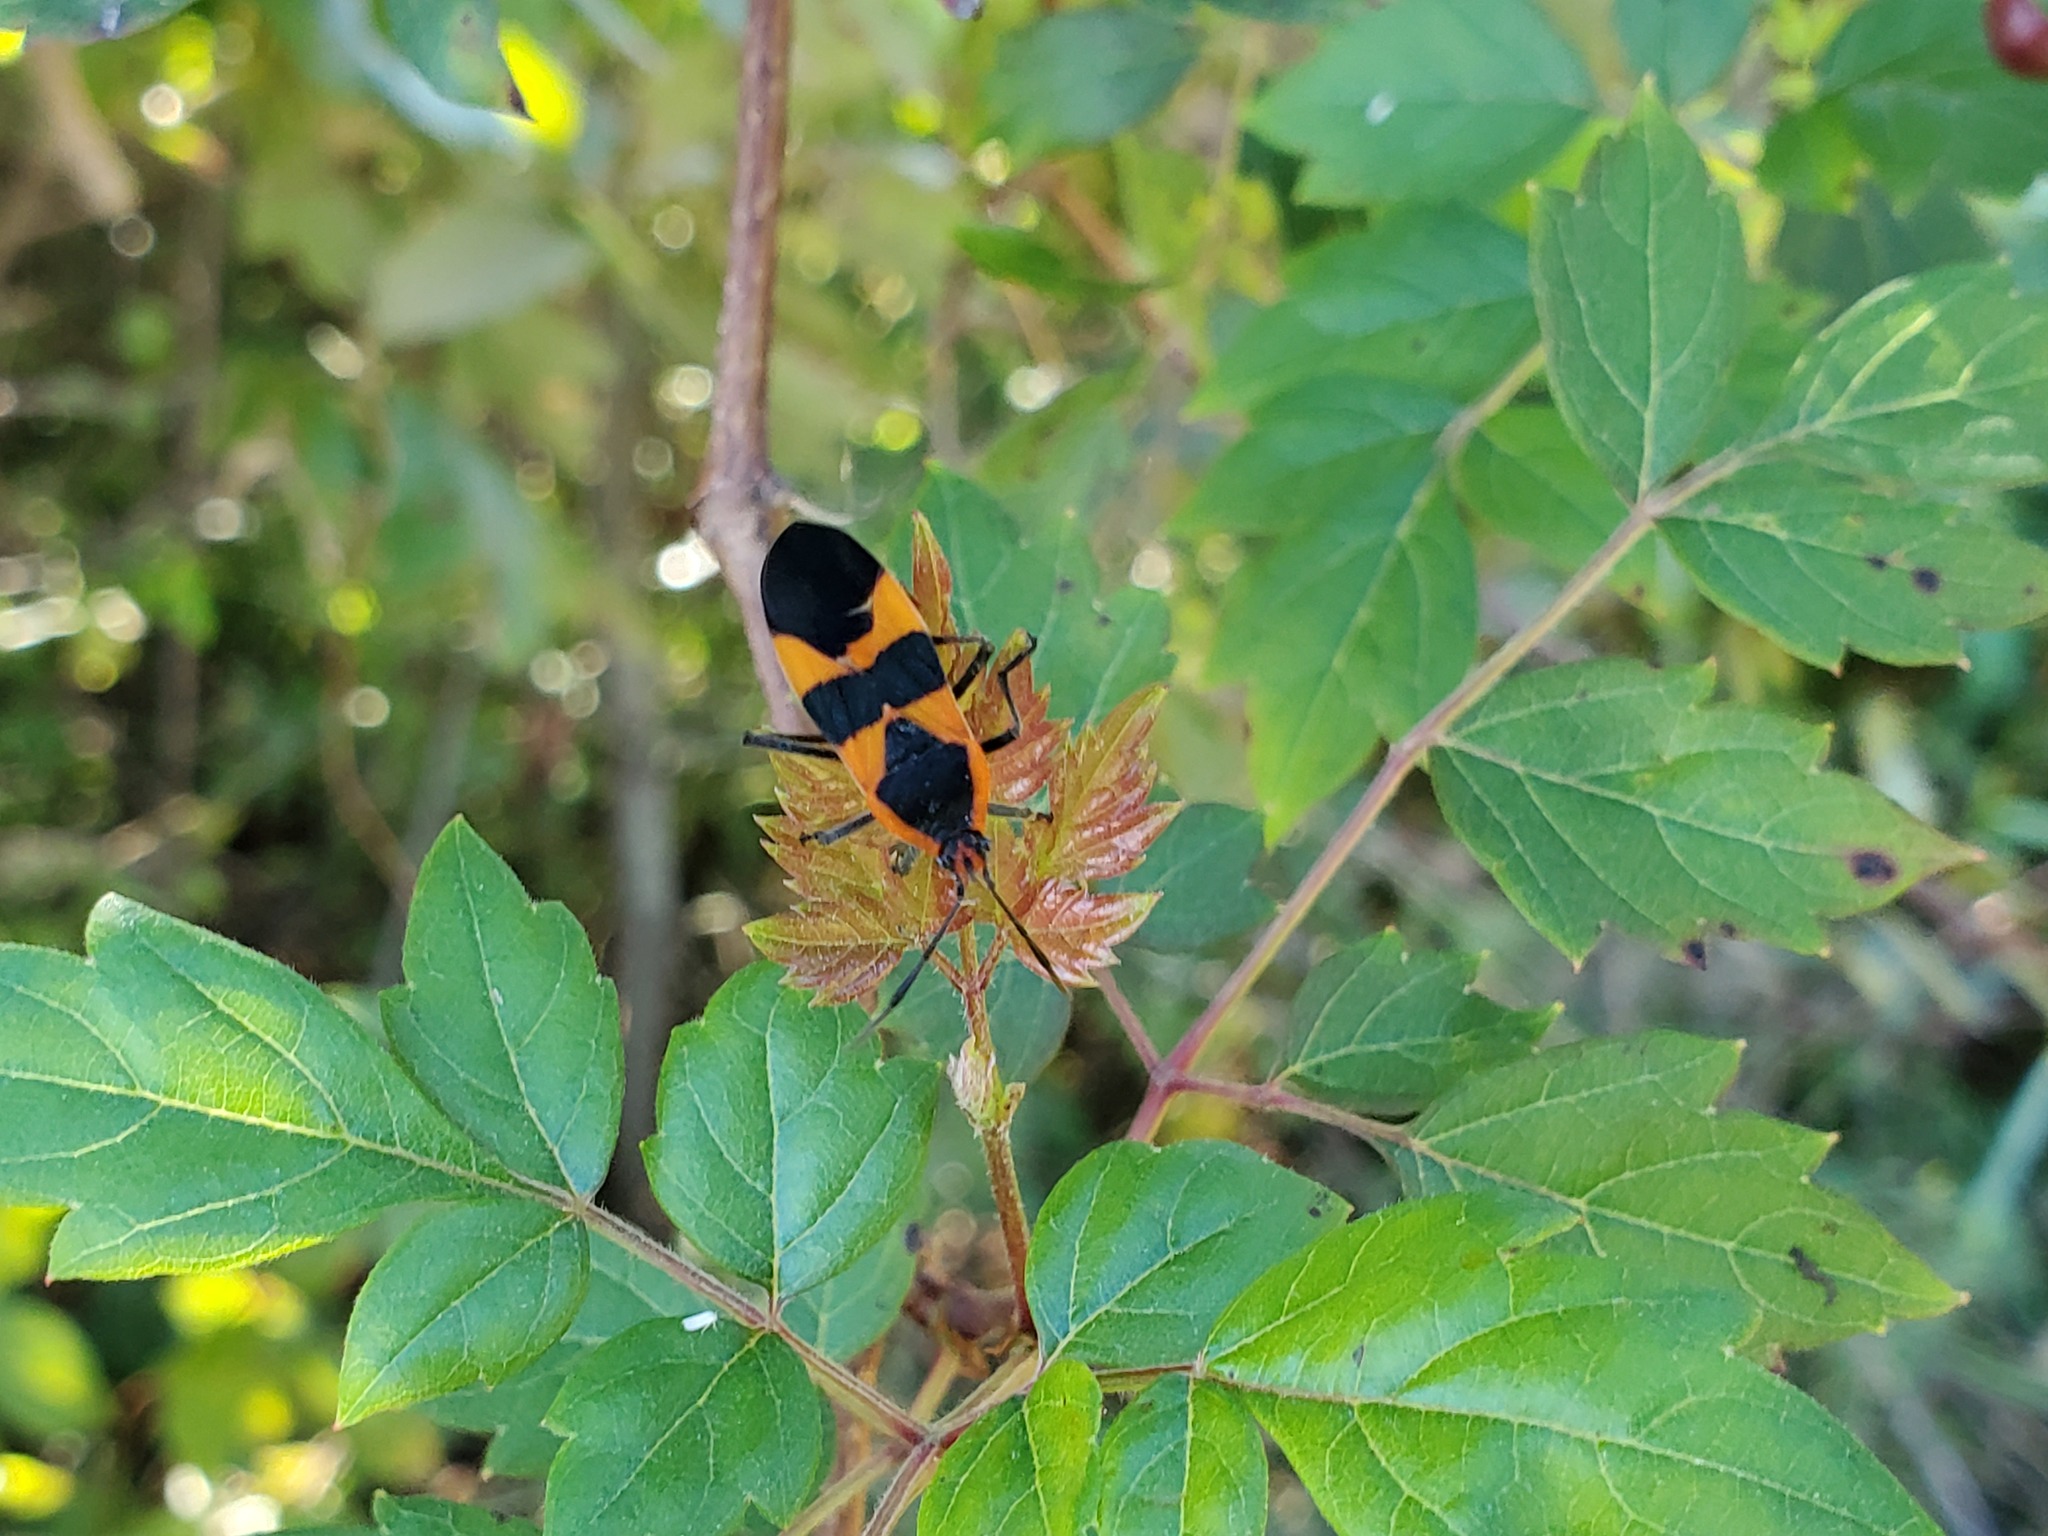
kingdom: Animalia
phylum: Arthropoda
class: Insecta
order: Hemiptera
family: Lygaeidae
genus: Oncopeltus
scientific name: Oncopeltus fasciatus
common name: Large milkweed bug
